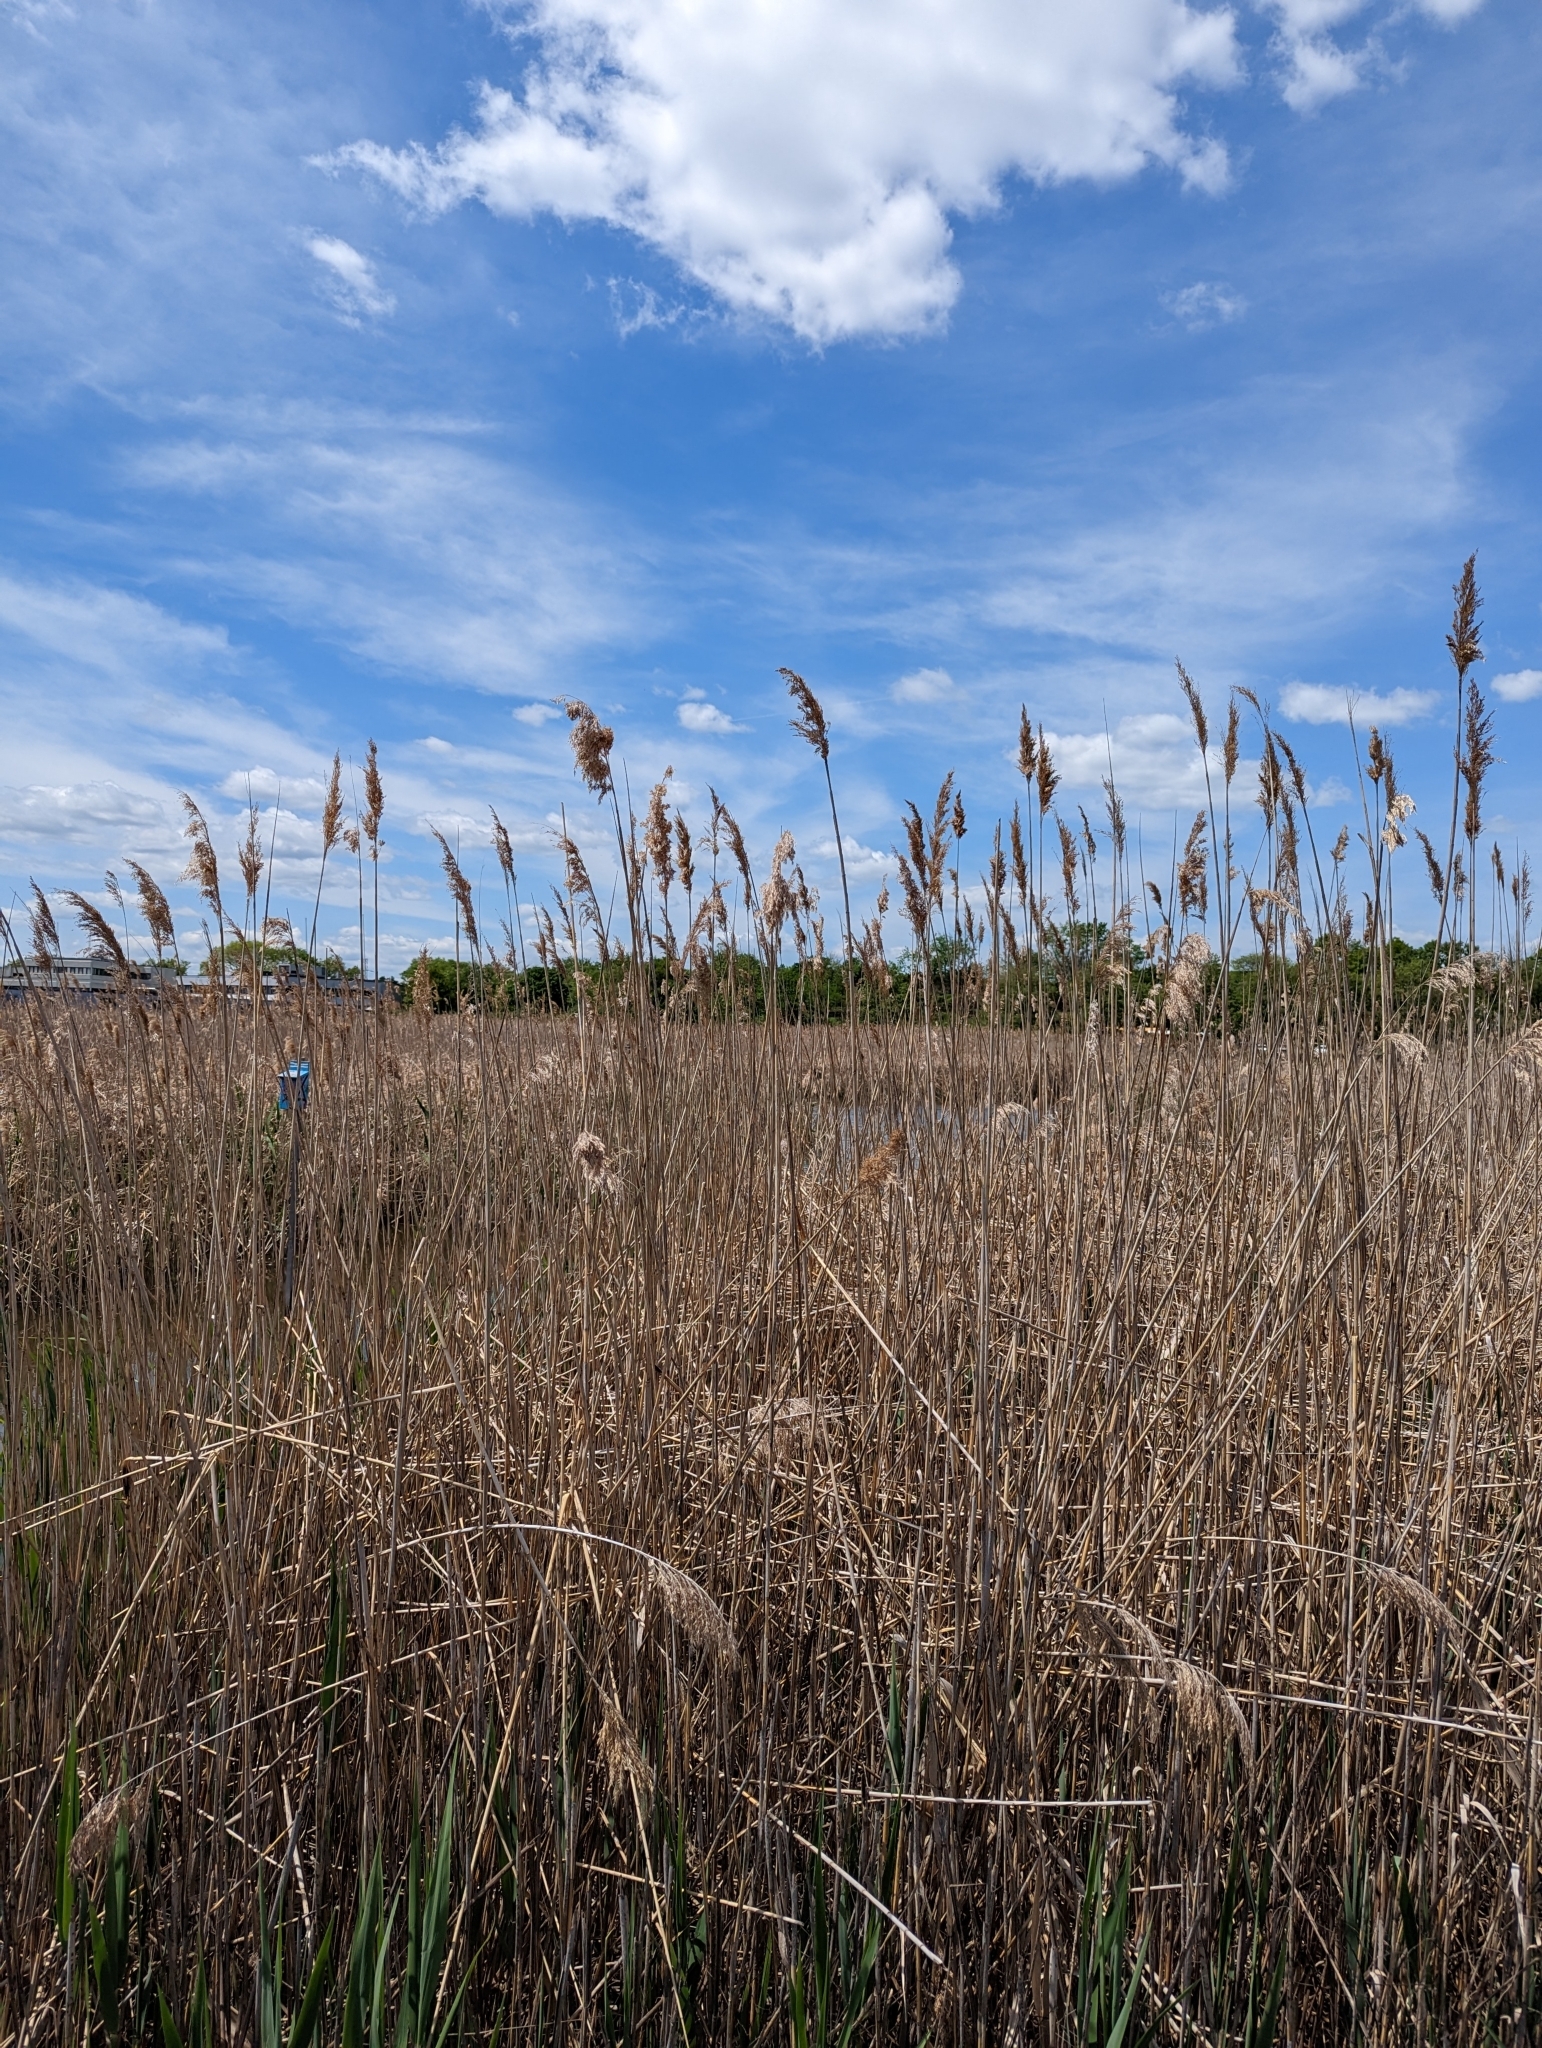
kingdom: Plantae
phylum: Tracheophyta
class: Liliopsida
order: Poales
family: Poaceae
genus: Phragmites
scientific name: Phragmites australis
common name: Common reed
